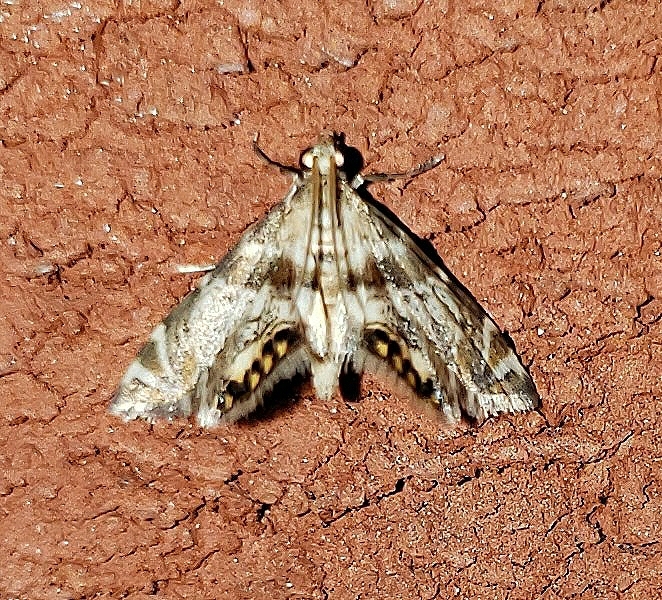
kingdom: Animalia
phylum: Arthropoda
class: Insecta
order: Lepidoptera
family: Crambidae
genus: Petrophila
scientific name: Petrophila fulicalis
